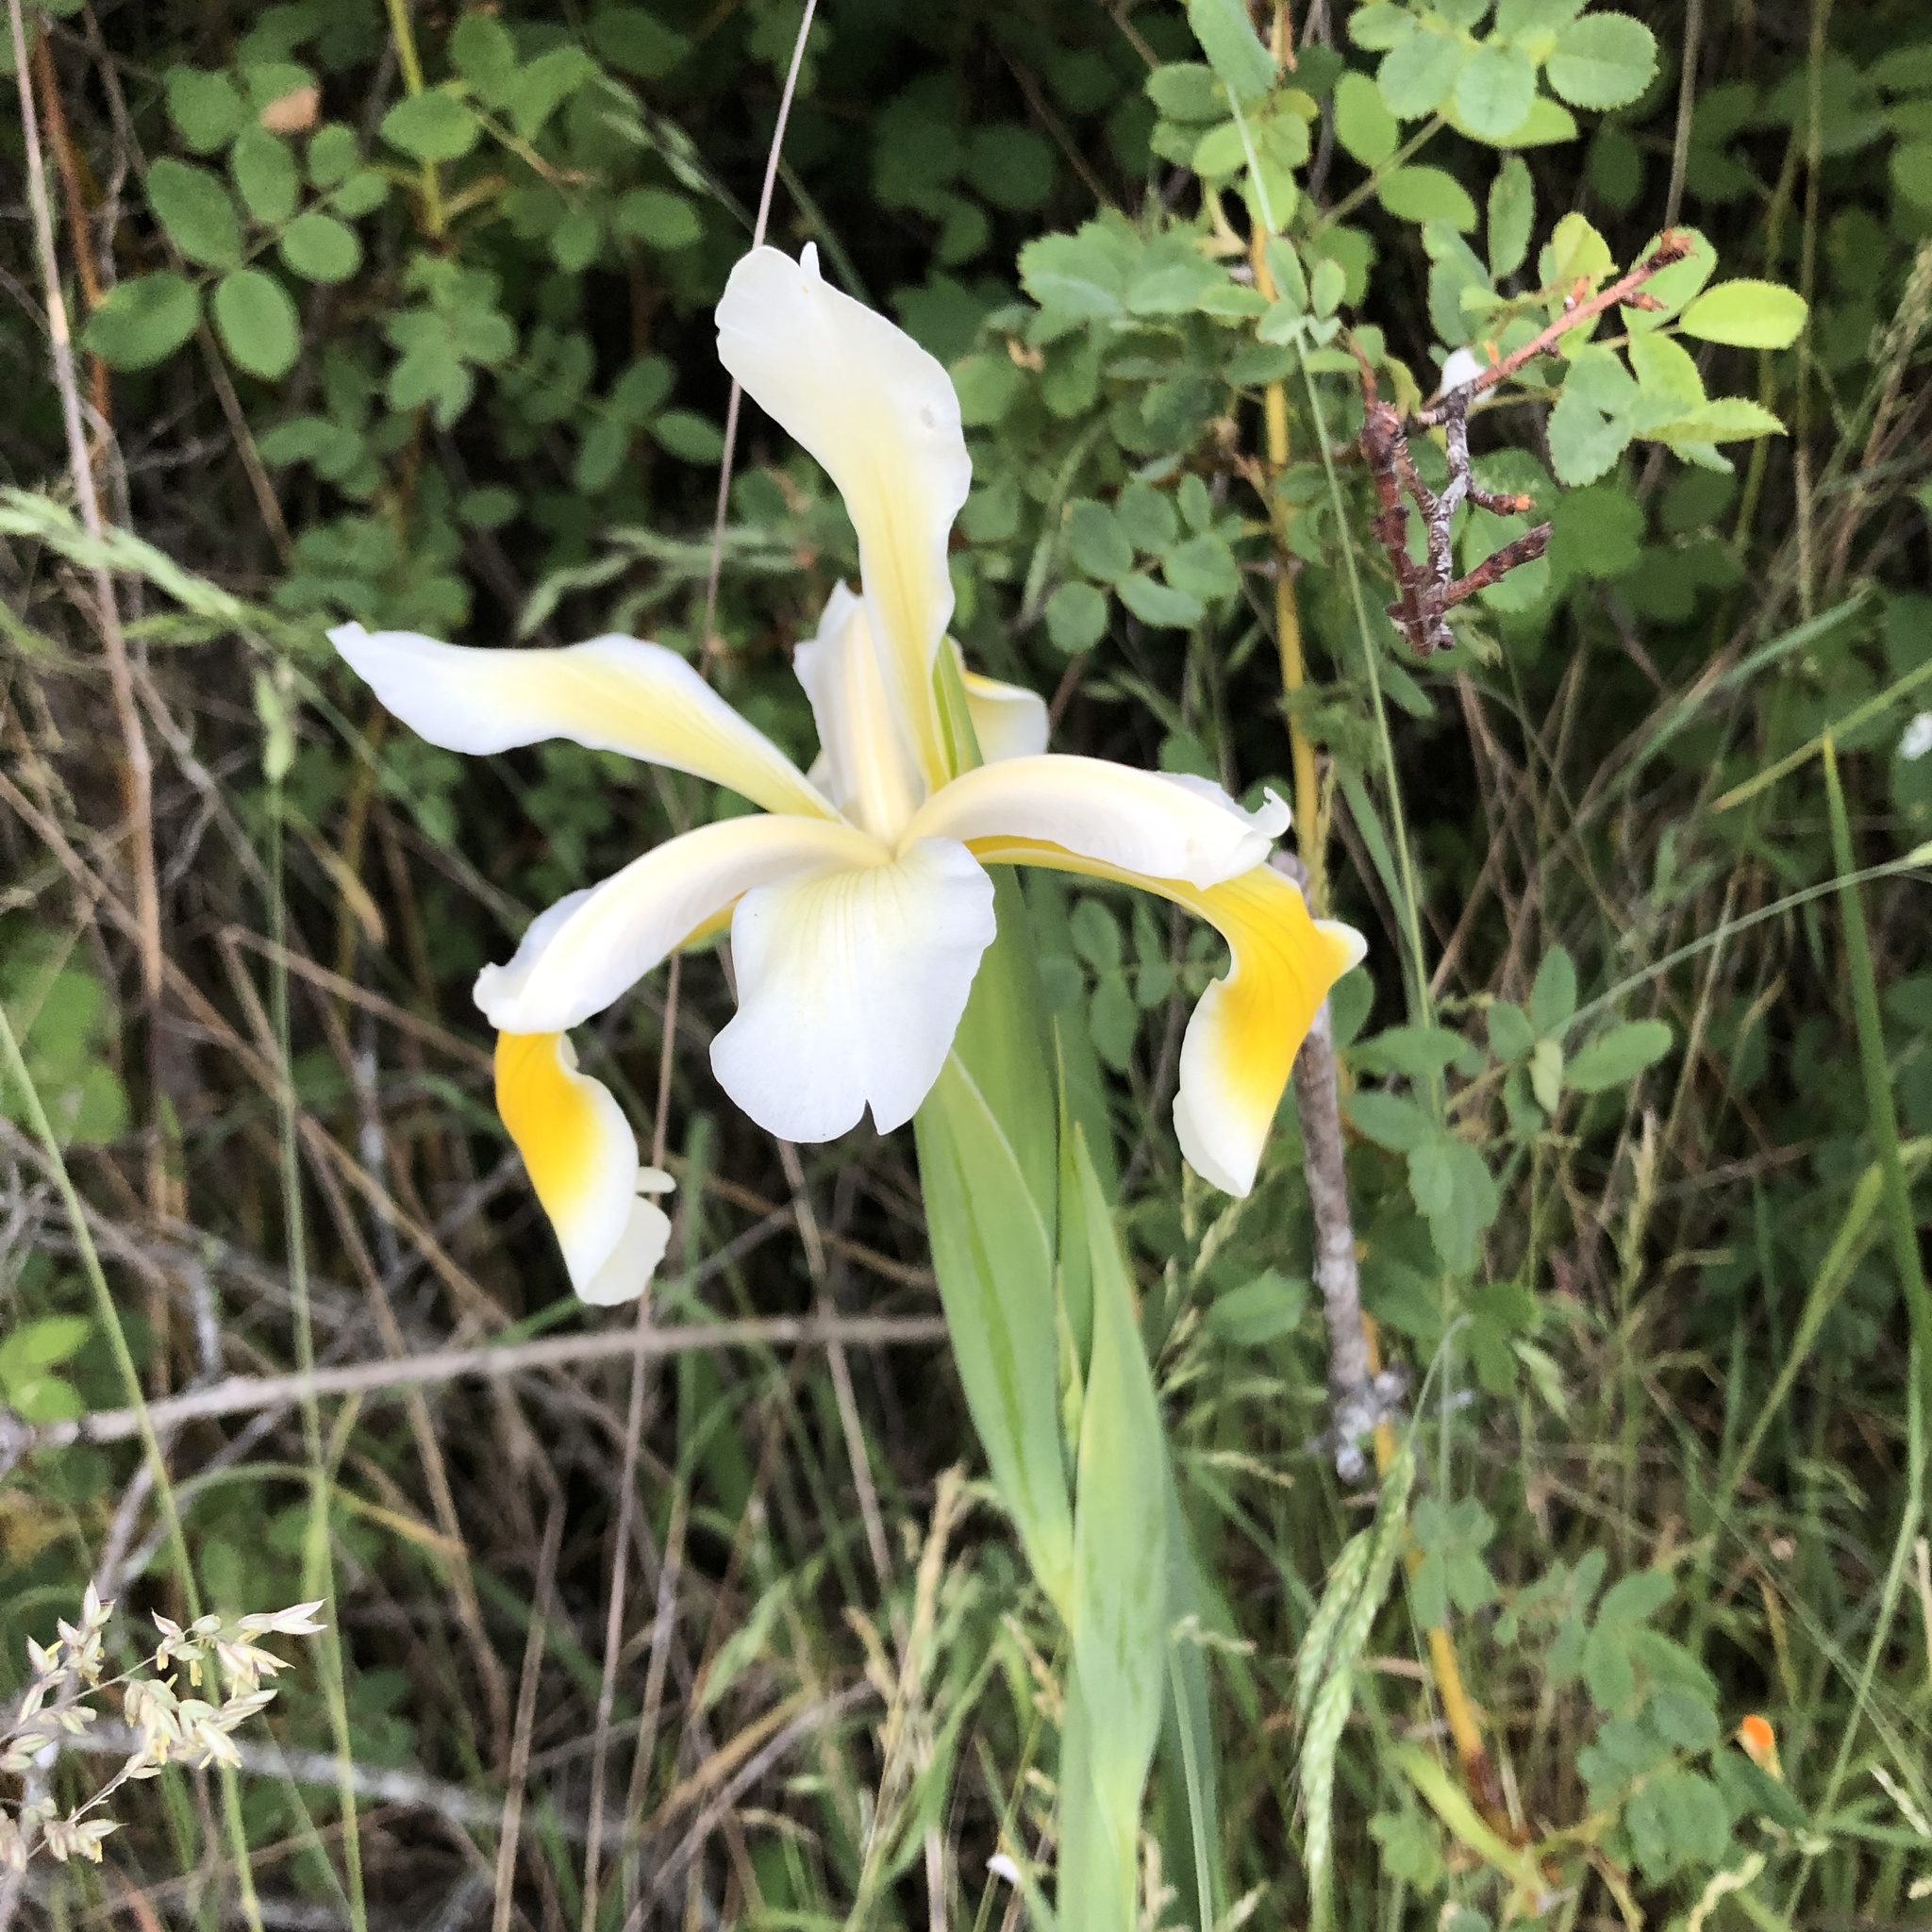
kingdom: Plantae
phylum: Tracheophyta
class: Liliopsida
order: Asparagales
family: Iridaceae
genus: Iris
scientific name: Iris orientalis
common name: Turkish iris
